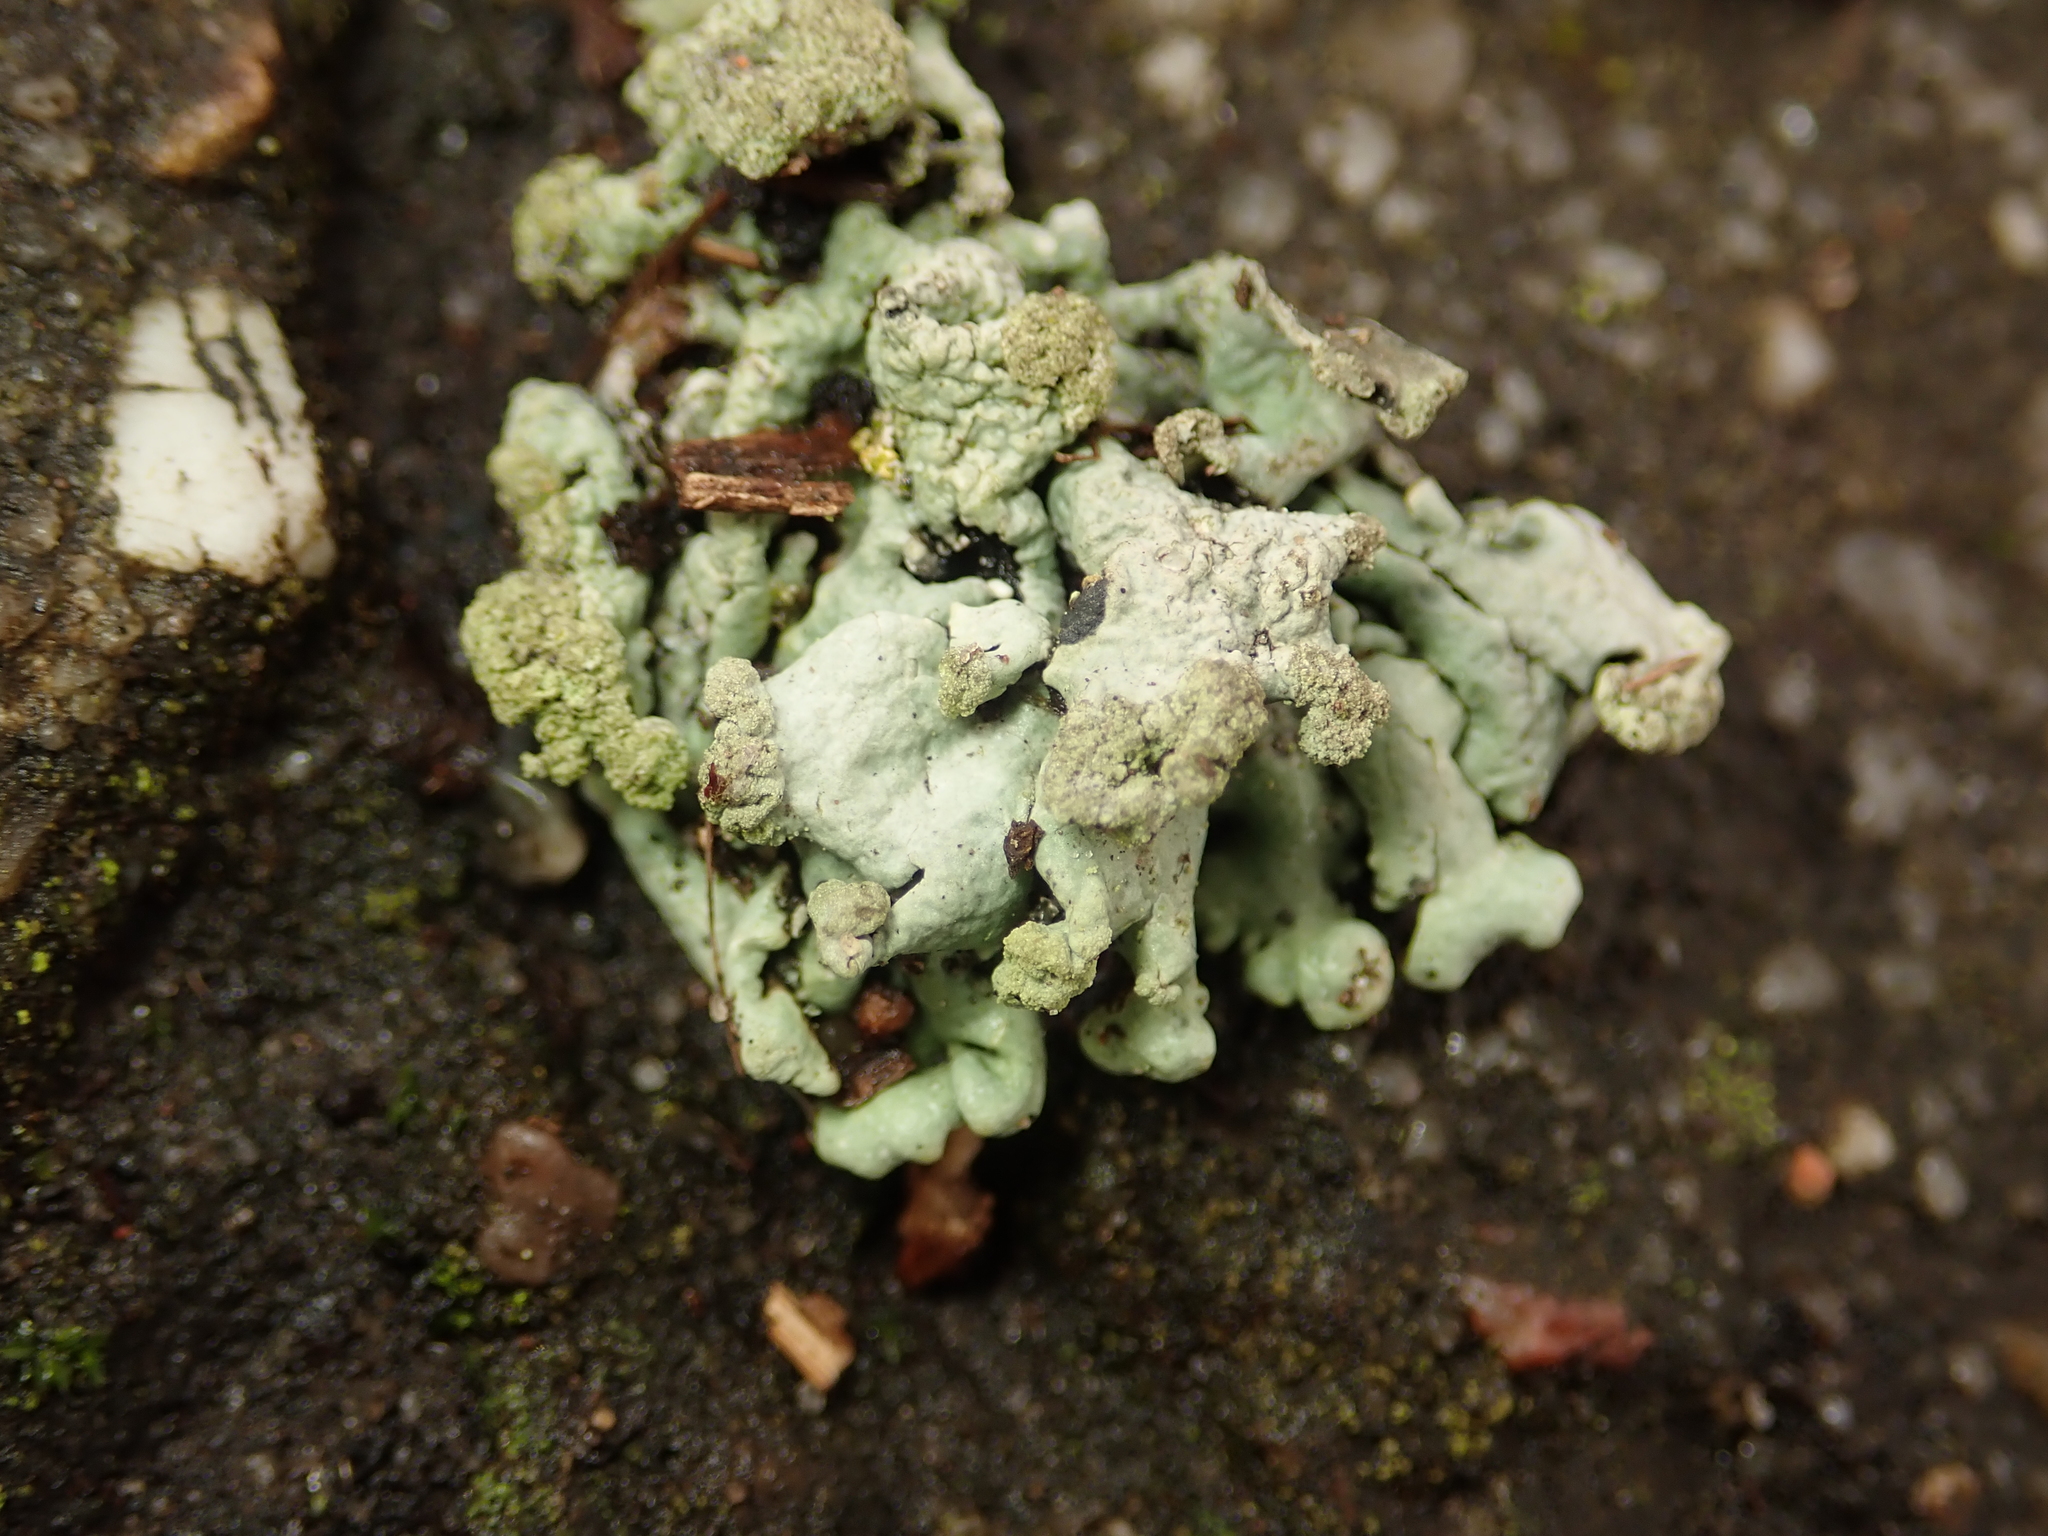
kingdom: Fungi
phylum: Ascomycota
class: Lecanoromycetes
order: Lecanorales
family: Parmeliaceae
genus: Hypogymnia
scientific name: Hypogymnia tubulosa
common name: Powder-headed tube lichen
